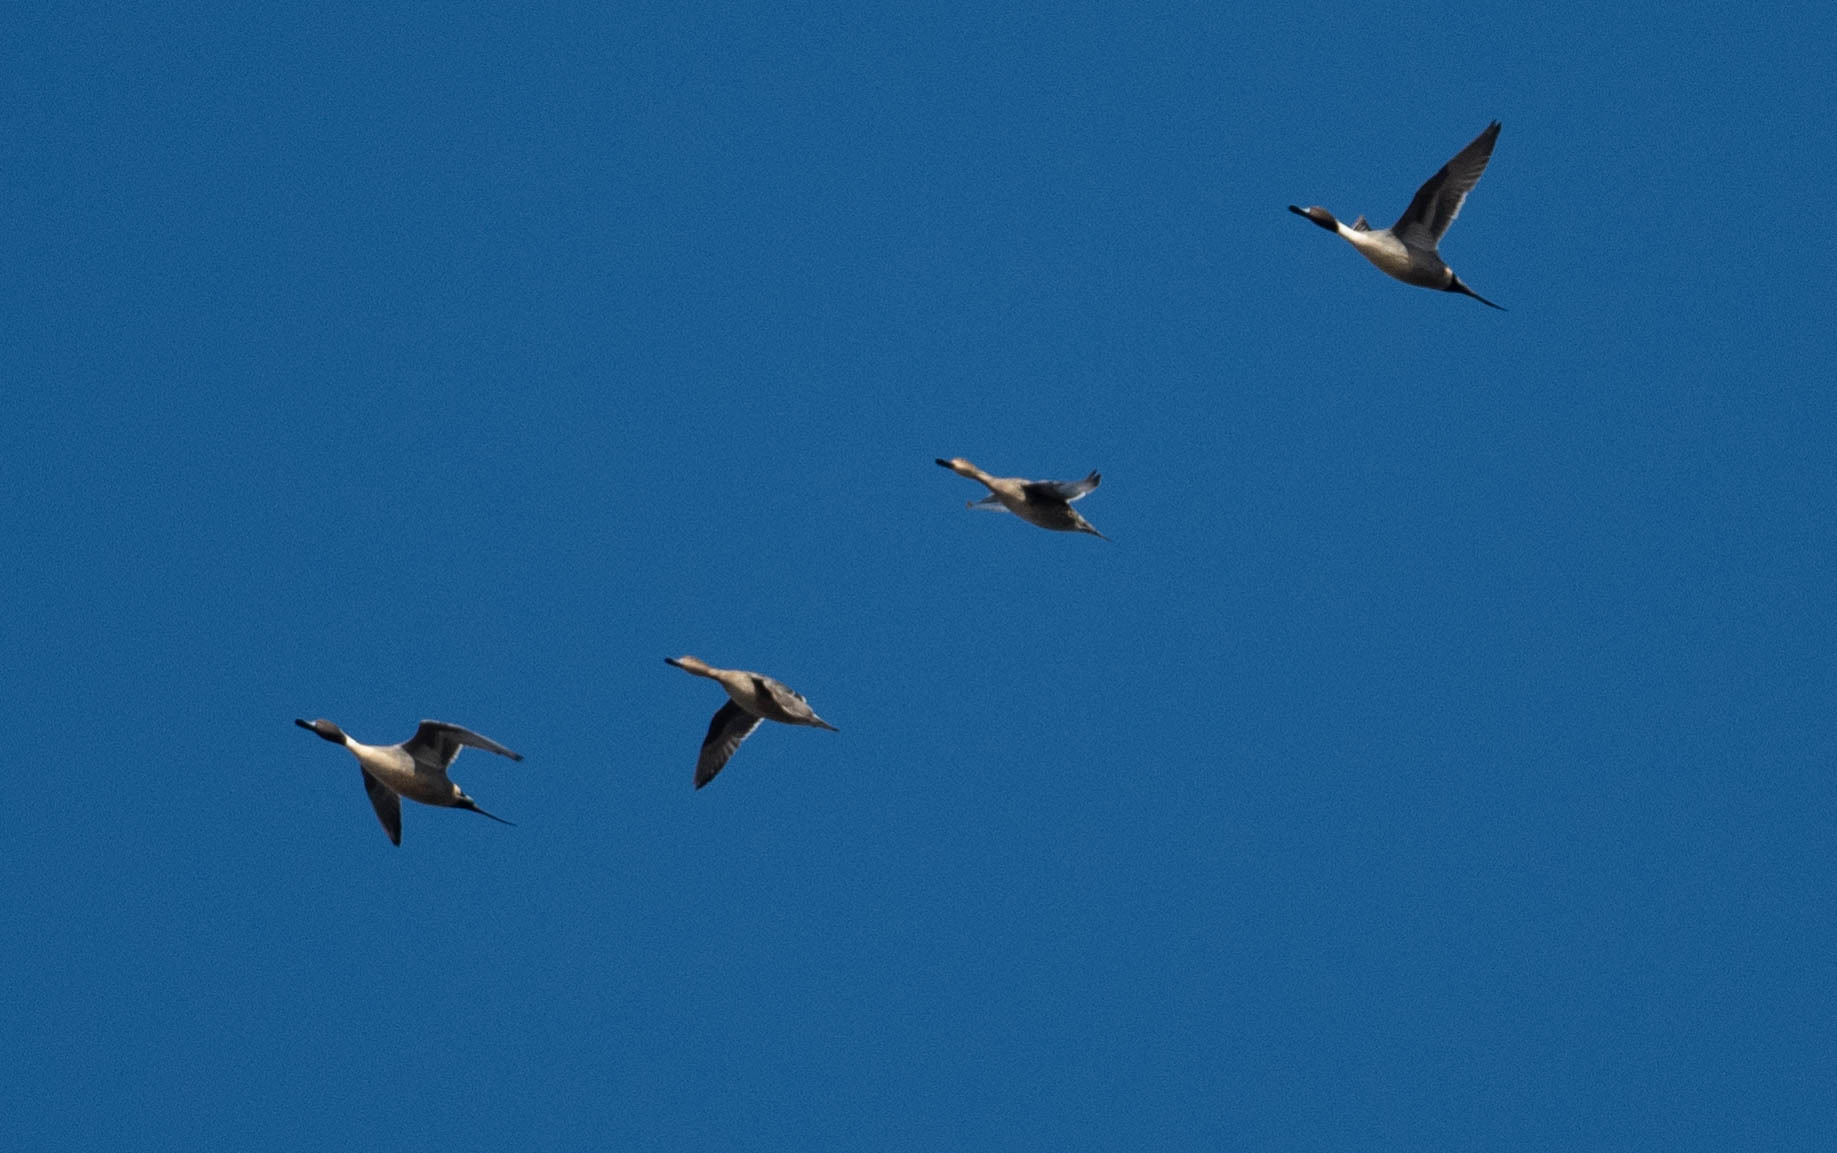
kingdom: Animalia
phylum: Chordata
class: Aves
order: Anseriformes
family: Anatidae
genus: Anas
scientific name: Anas acuta
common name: Northern pintail
